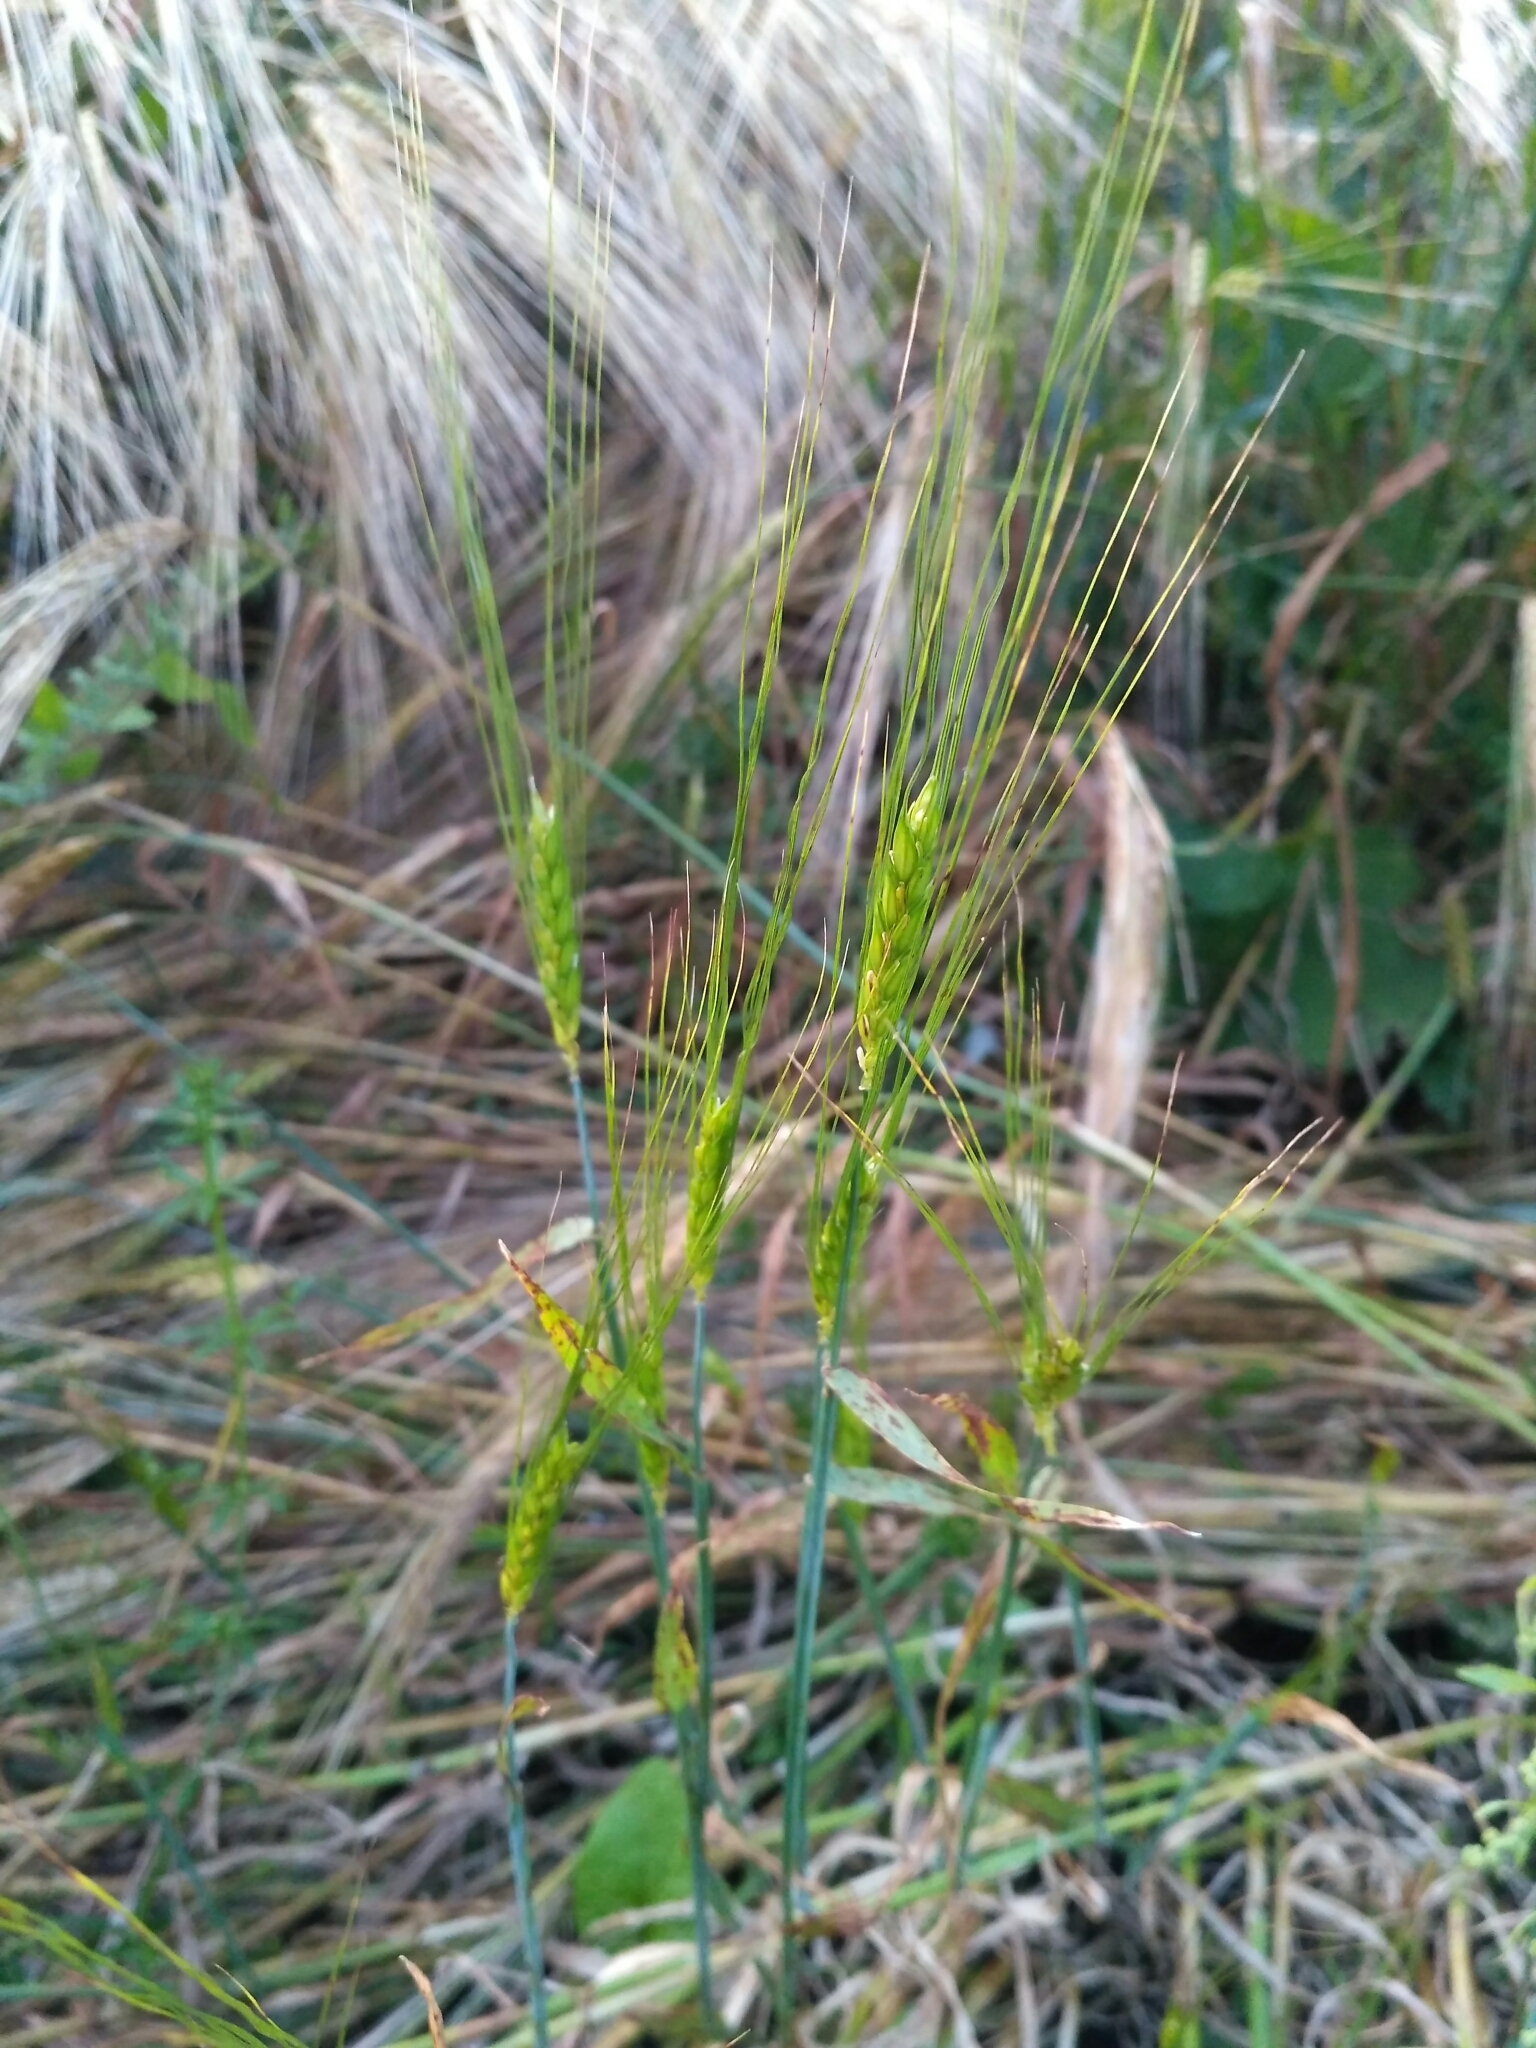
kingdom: Plantae
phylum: Tracheophyta
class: Liliopsida
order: Poales
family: Poaceae
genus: Triticum
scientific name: Triticum aestivum
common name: Common wheat
